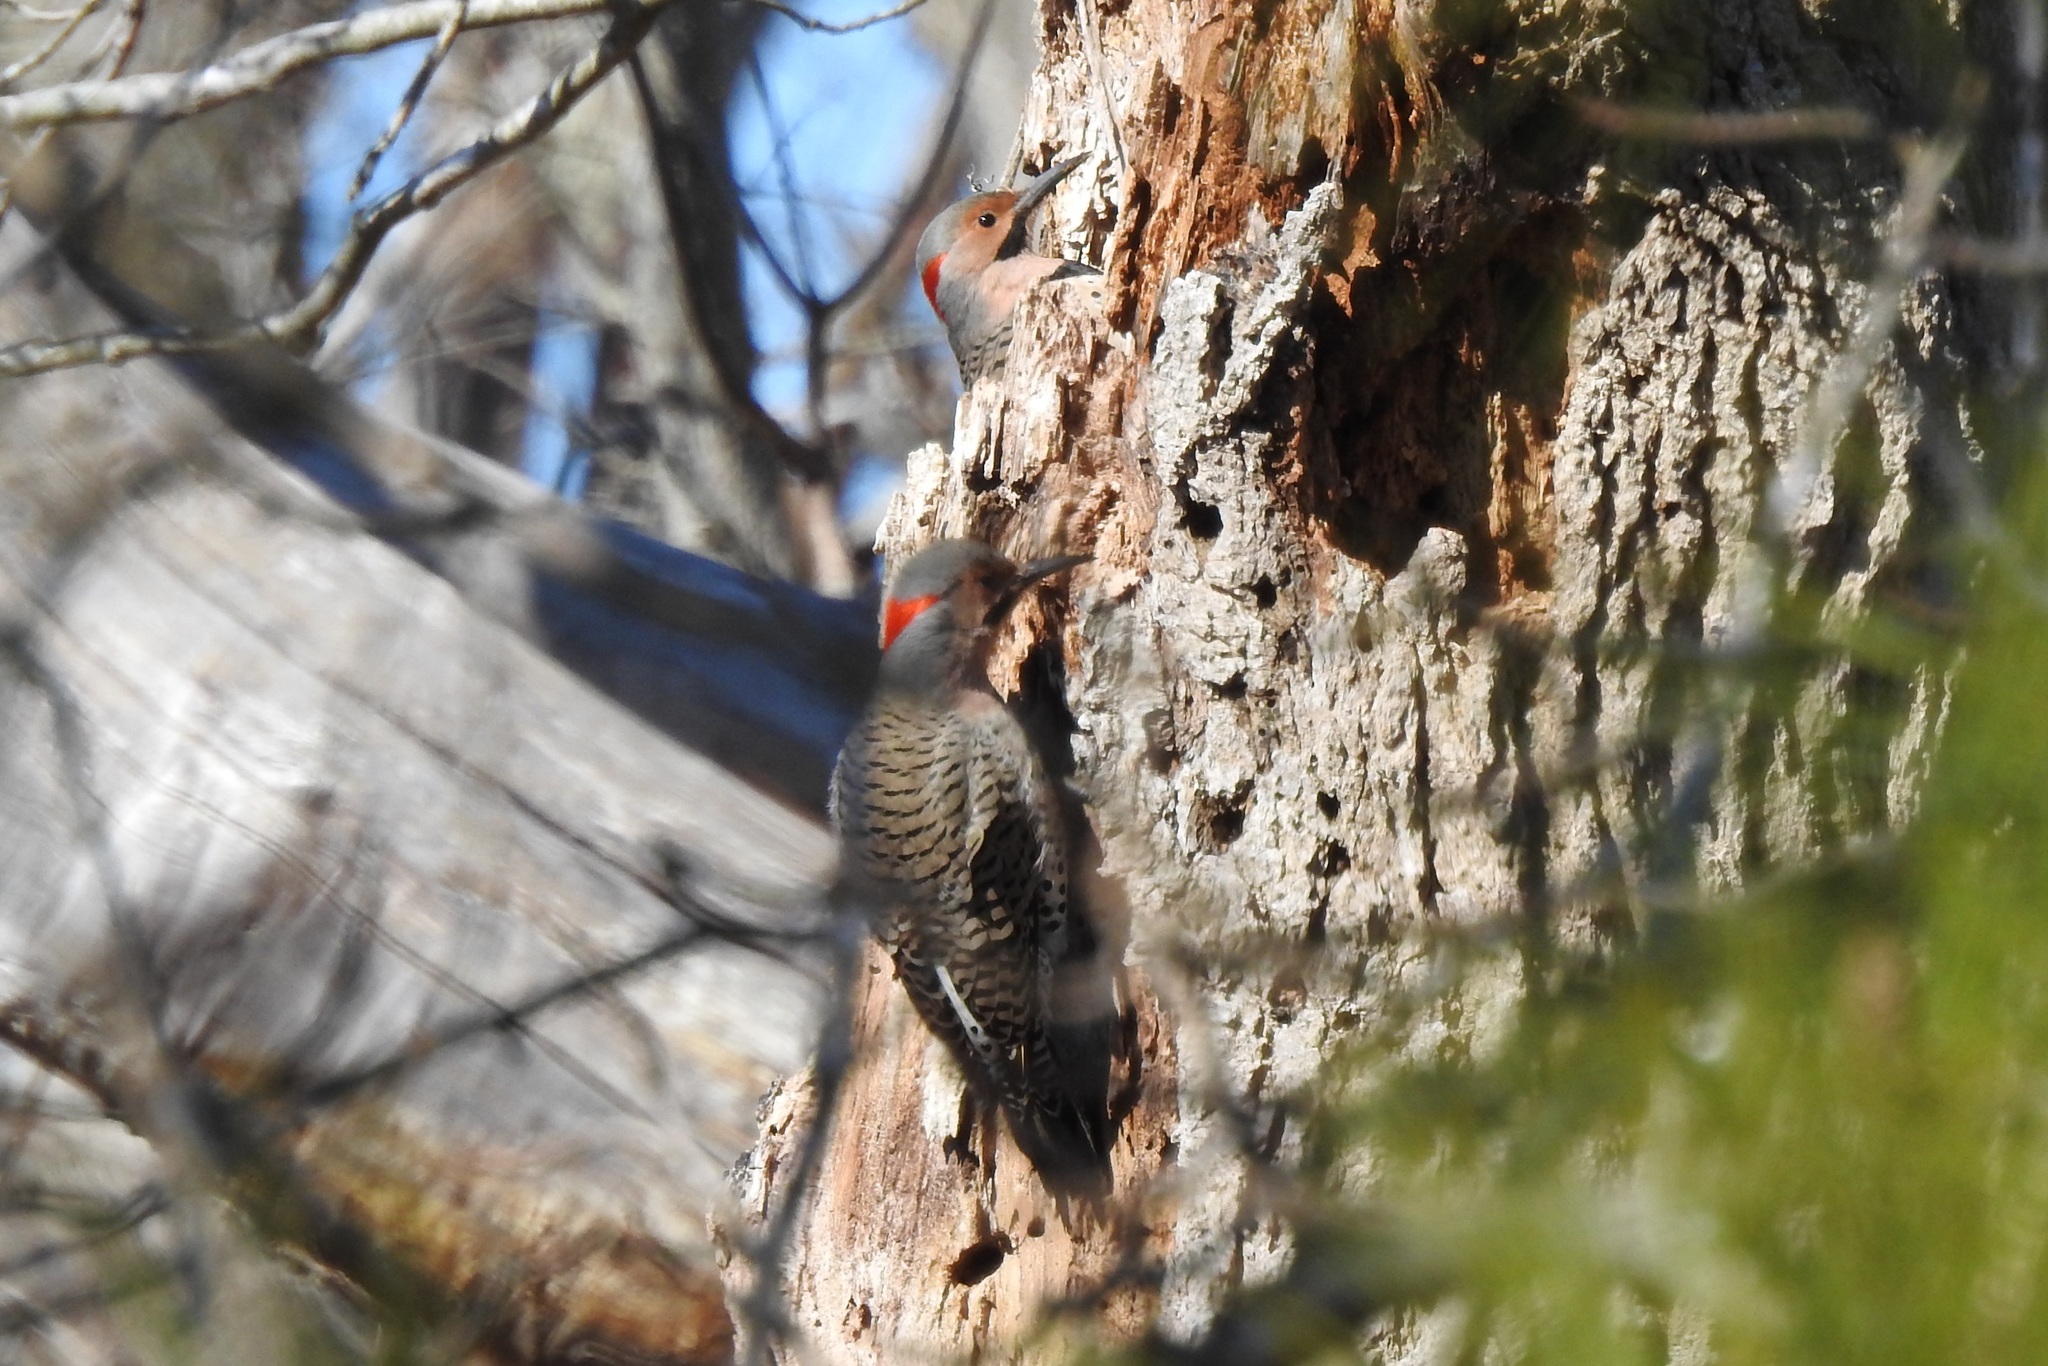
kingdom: Animalia
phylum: Chordata
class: Aves
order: Piciformes
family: Picidae
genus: Colaptes
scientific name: Colaptes auratus
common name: Northern flicker
